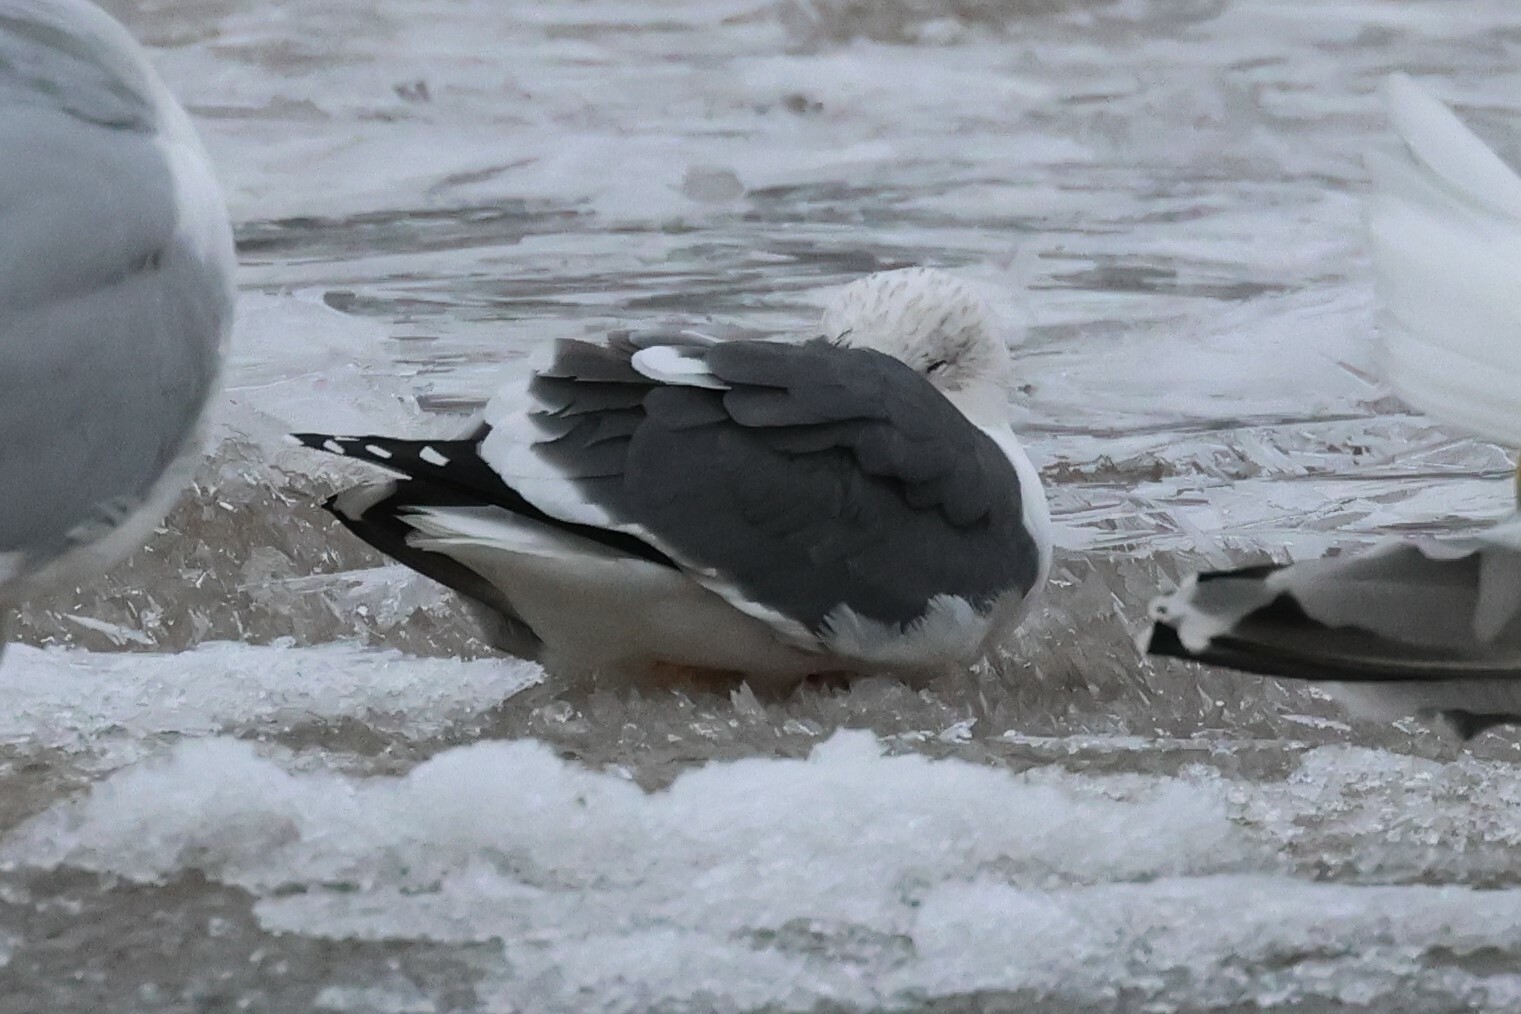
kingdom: Animalia
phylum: Chordata
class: Aves
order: Charadriiformes
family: Laridae
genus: Larus
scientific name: Larus fuscus
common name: Lesser black-backed gull
